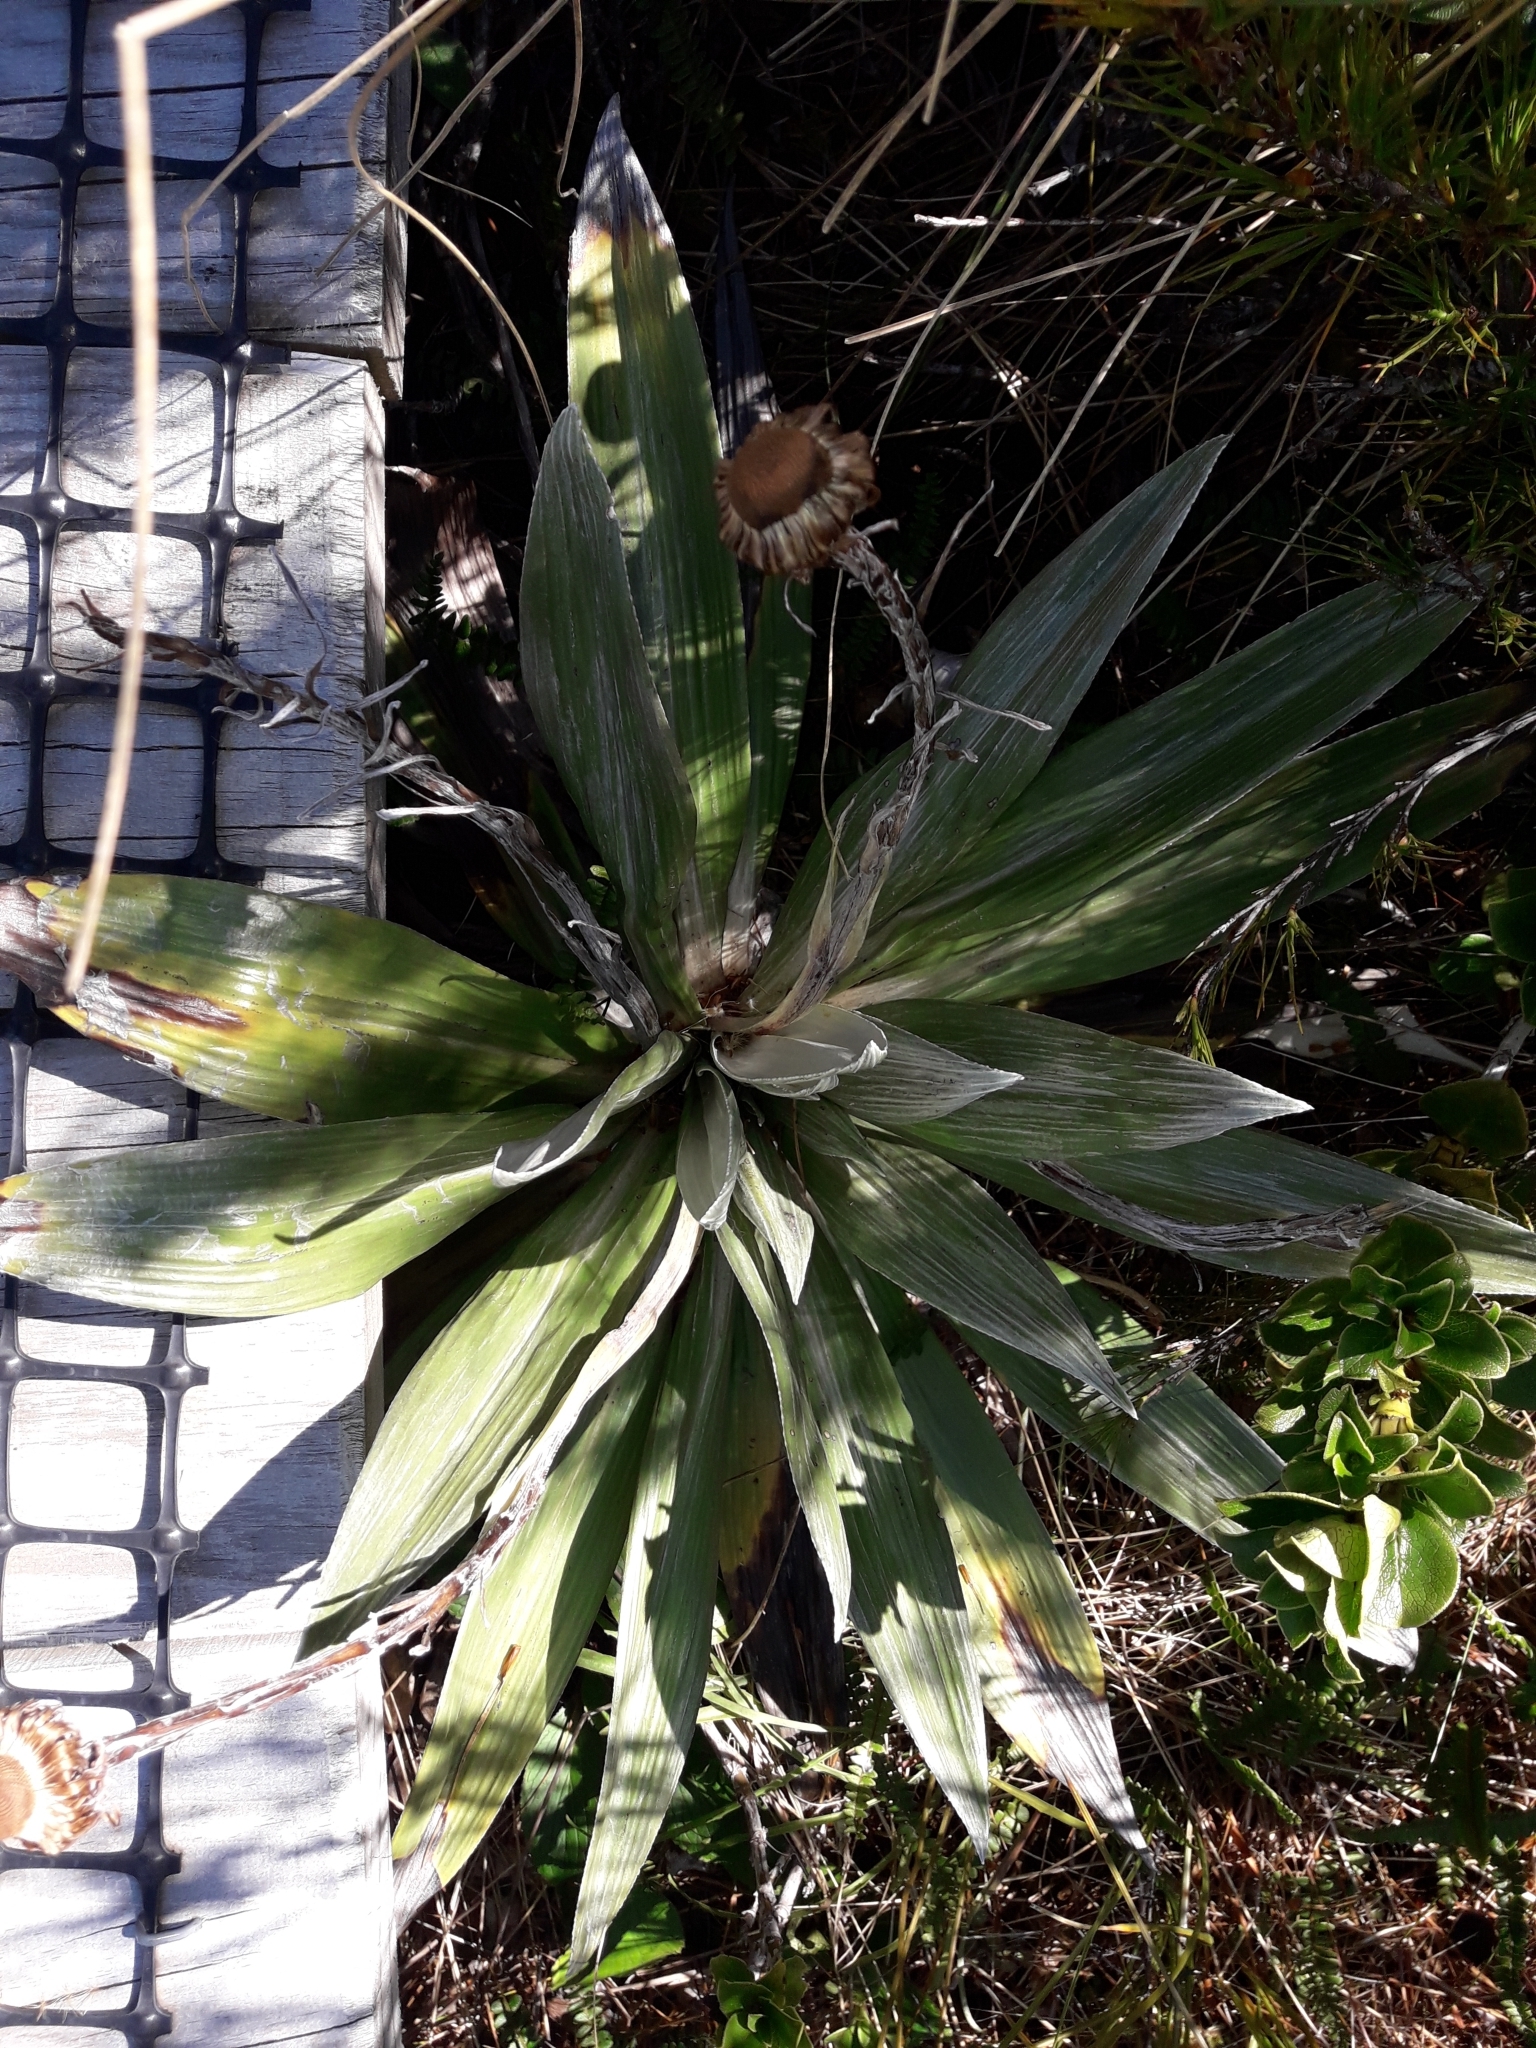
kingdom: Plantae
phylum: Tracheophyta
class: Magnoliopsida
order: Asterales
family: Asteraceae
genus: Celmisia
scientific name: Celmisia semicordata
